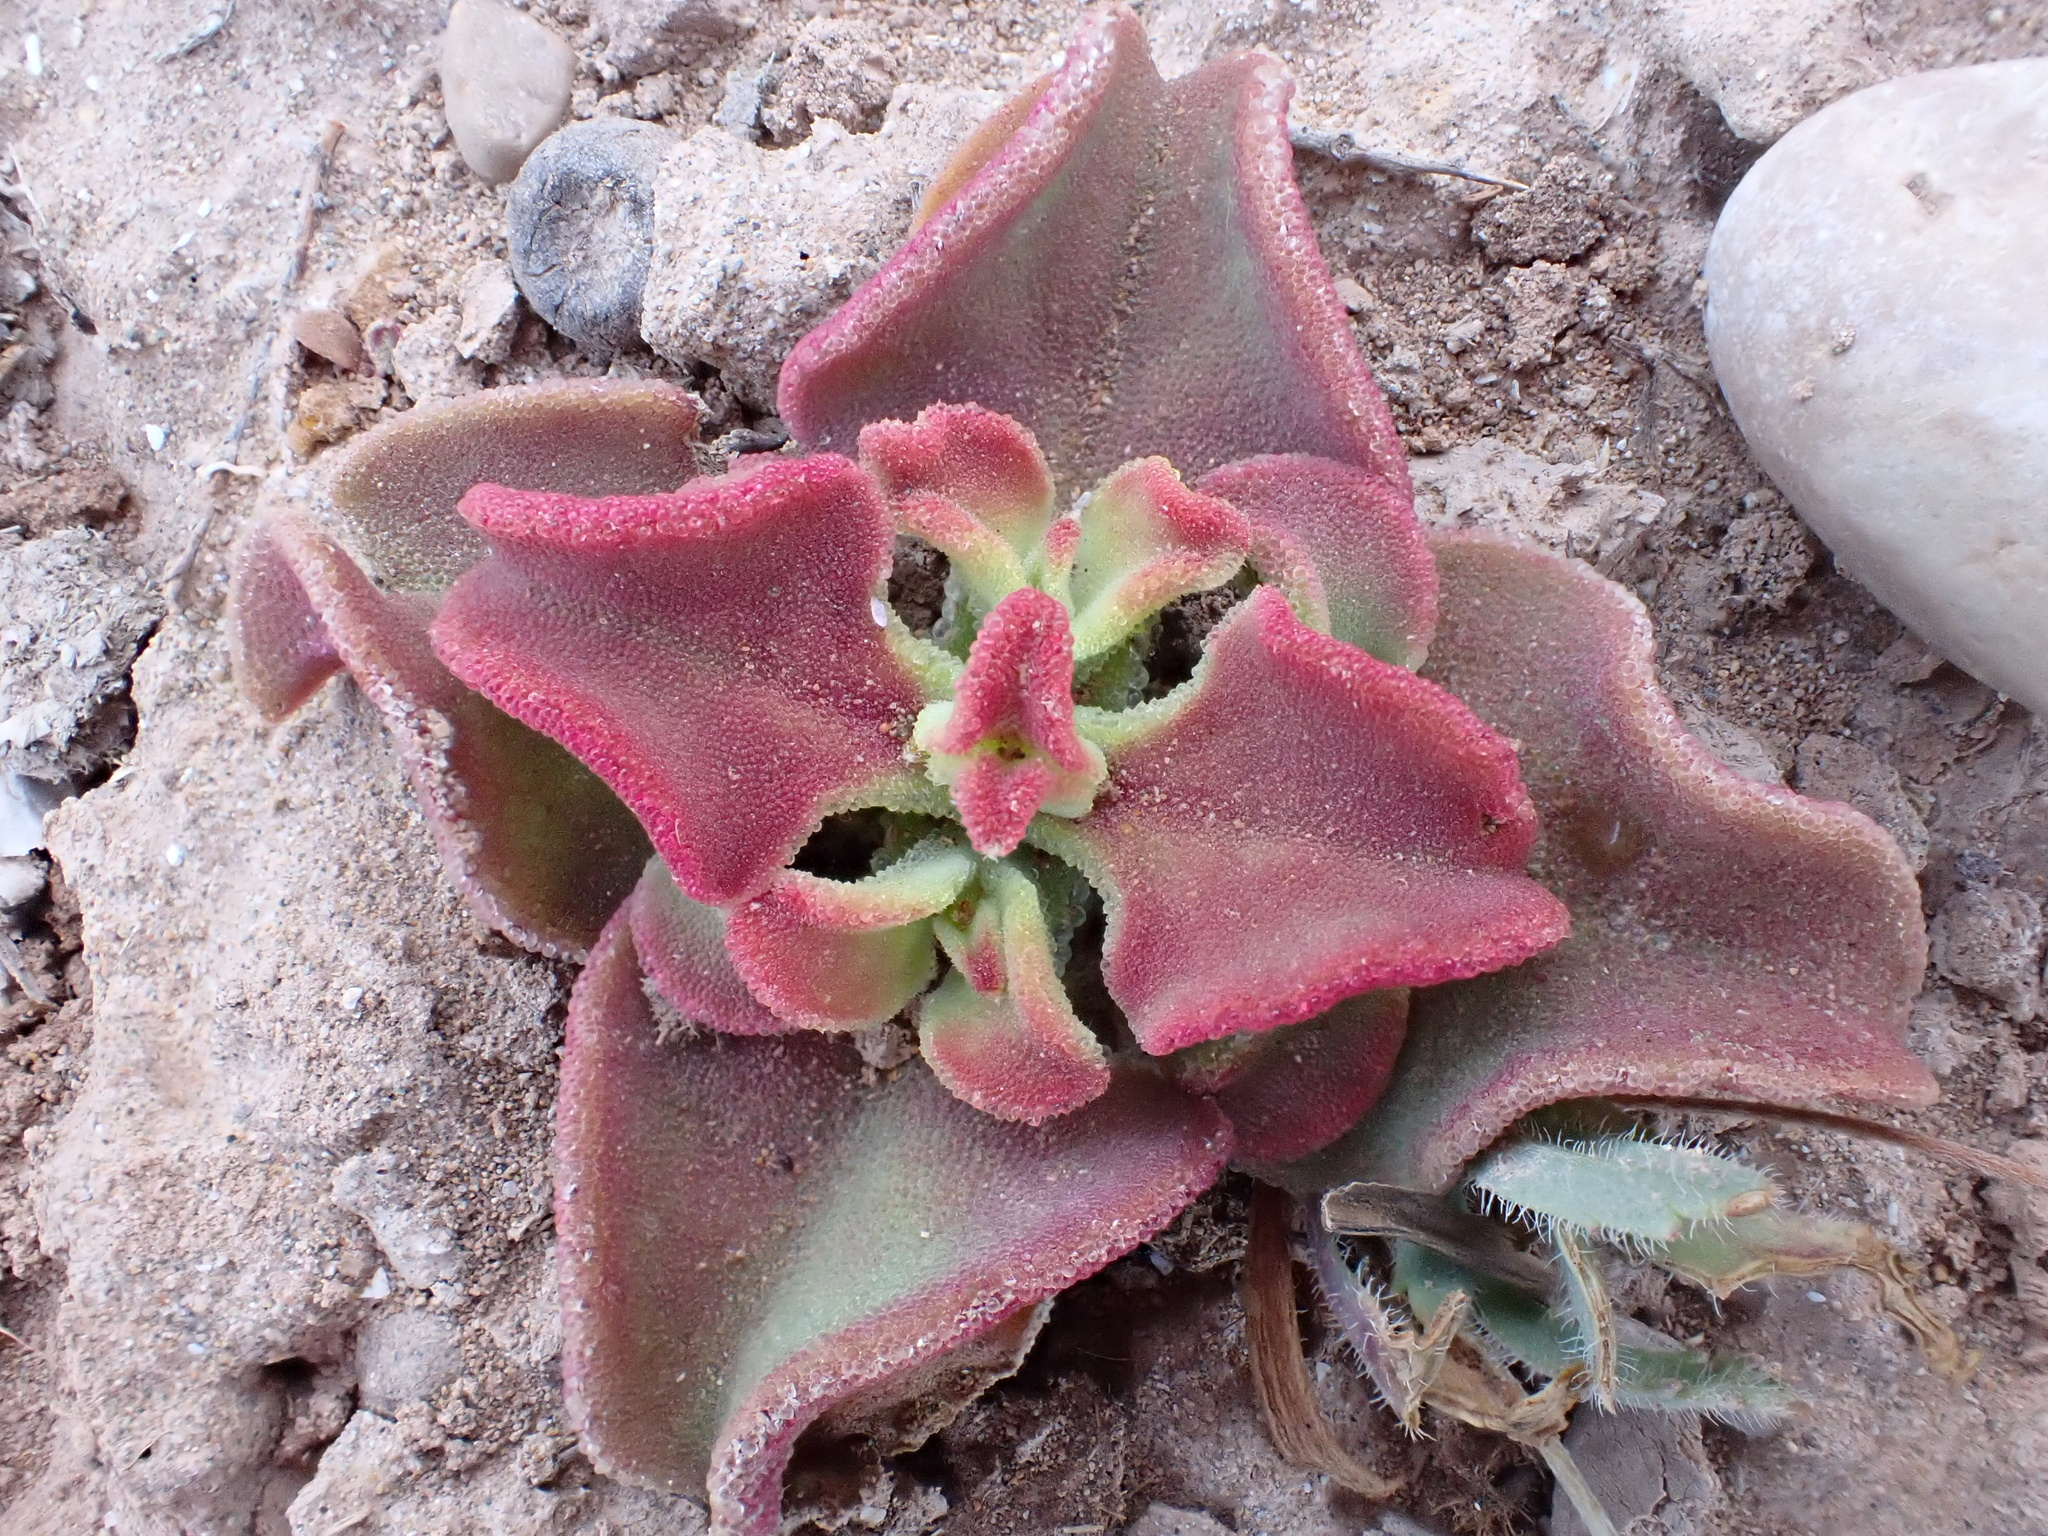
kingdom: Plantae
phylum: Tracheophyta
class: Magnoliopsida
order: Caryophyllales
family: Aizoaceae
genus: Mesembryanthemum
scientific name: Mesembryanthemum crystallinum
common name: Common iceplant
